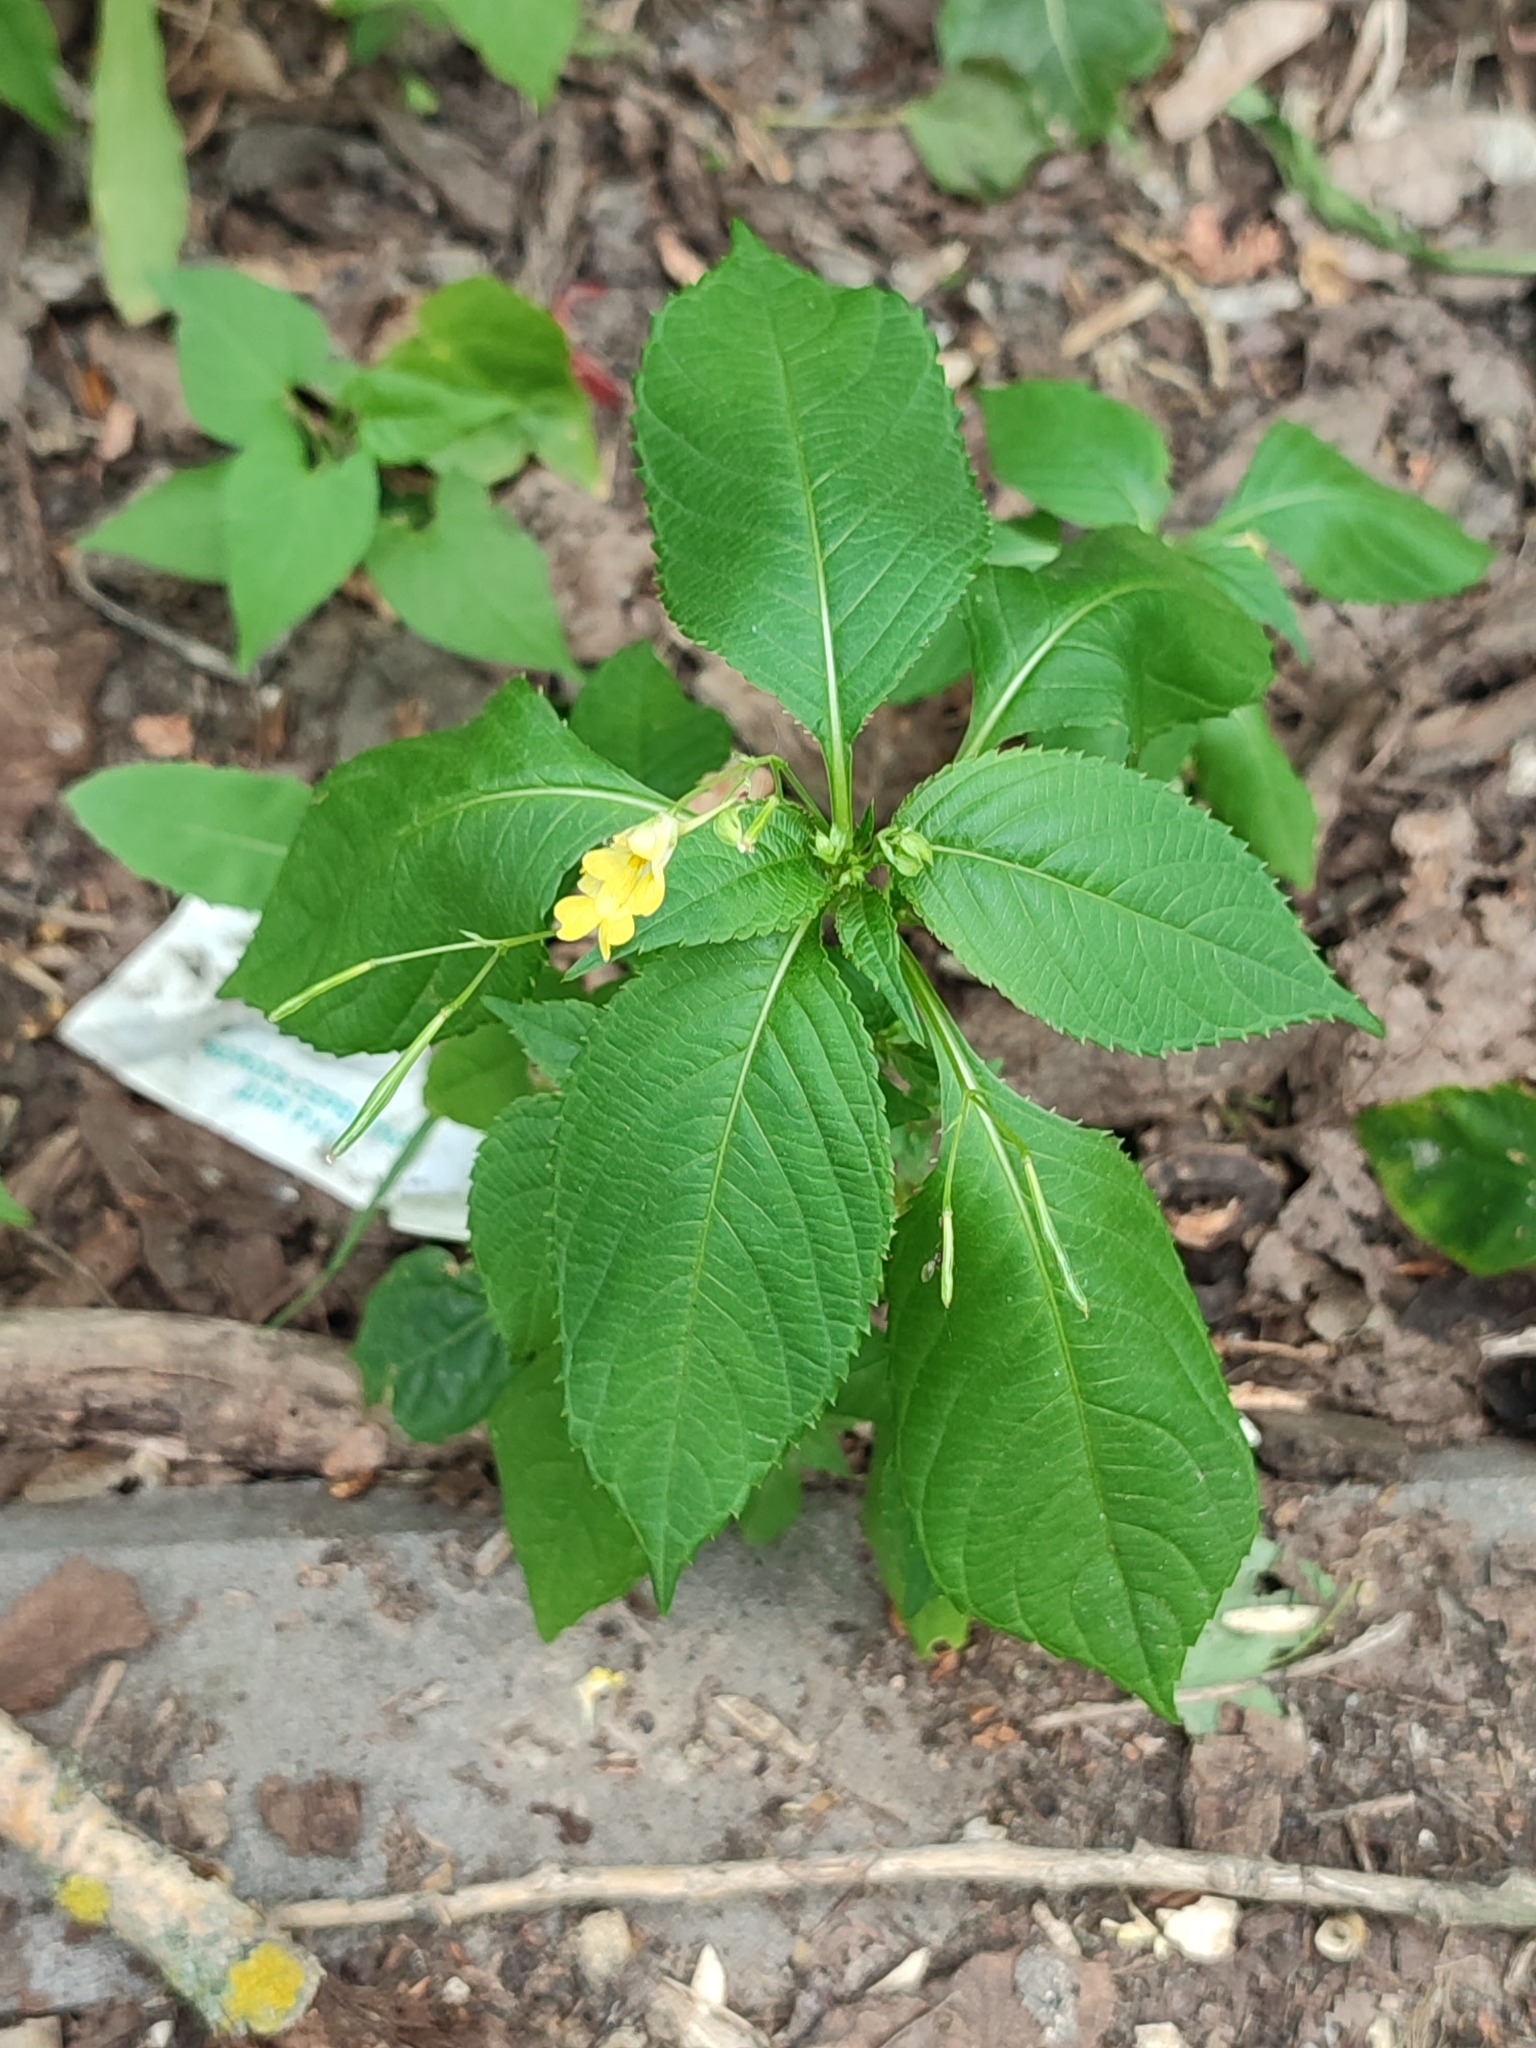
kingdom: Plantae
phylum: Tracheophyta
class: Magnoliopsida
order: Ericales
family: Balsaminaceae
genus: Impatiens
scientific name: Impatiens parviflora
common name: Small balsam
